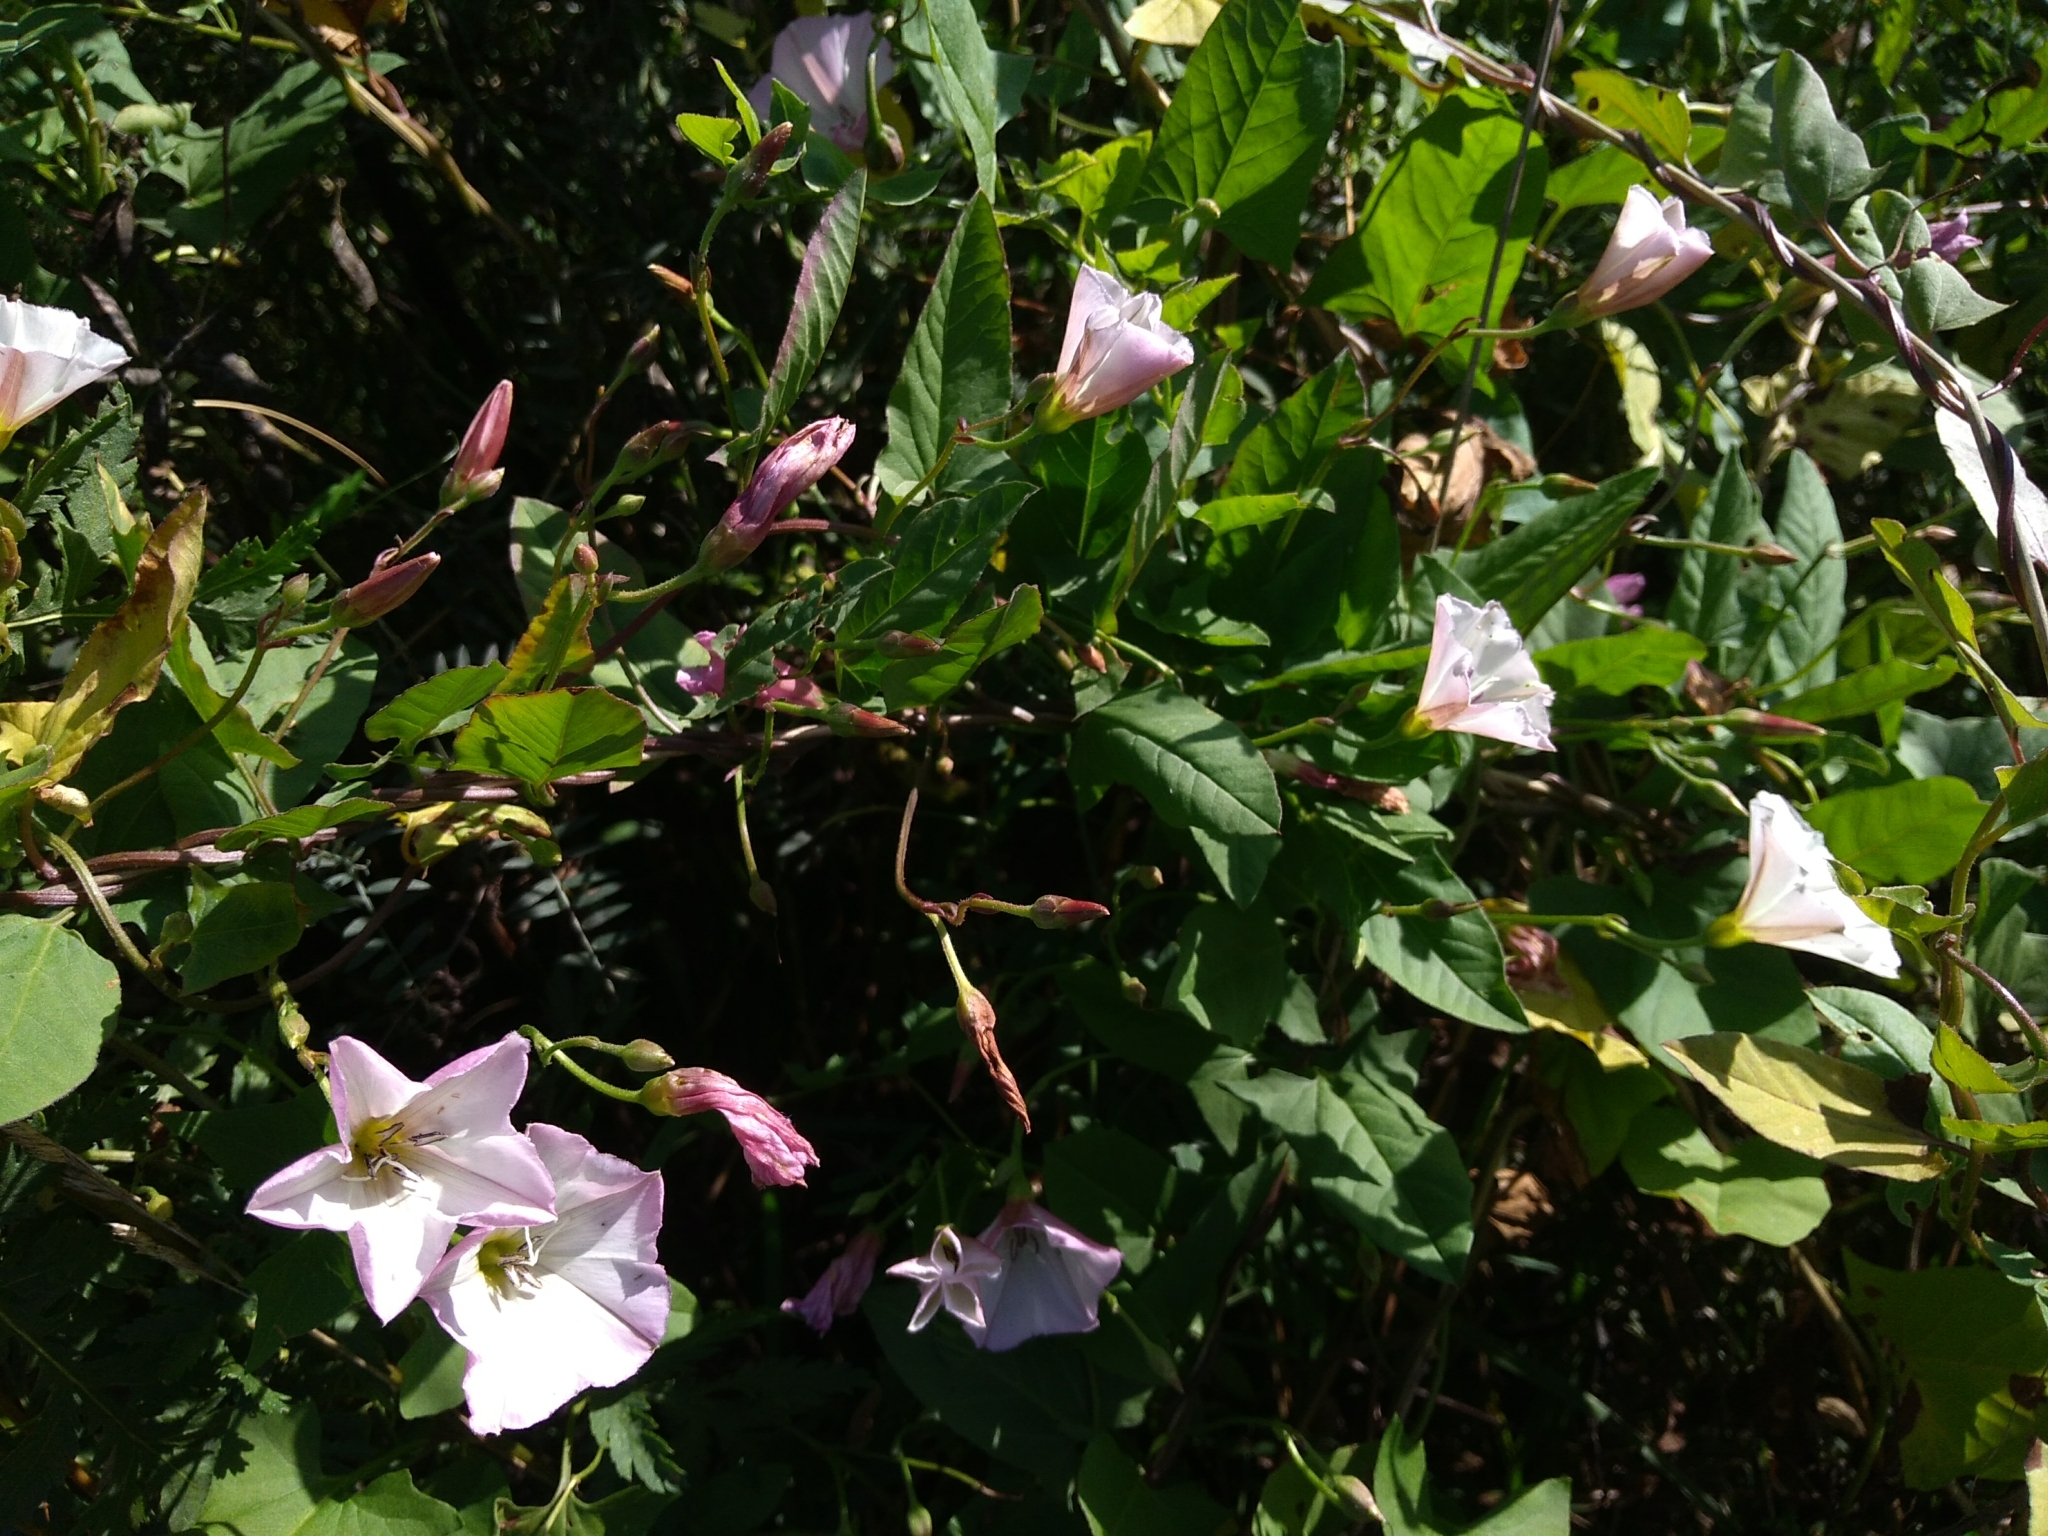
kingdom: Plantae
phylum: Tracheophyta
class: Magnoliopsida
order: Solanales
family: Convolvulaceae
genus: Convolvulus
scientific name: Convolvulus arvensis
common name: Field bindweed
